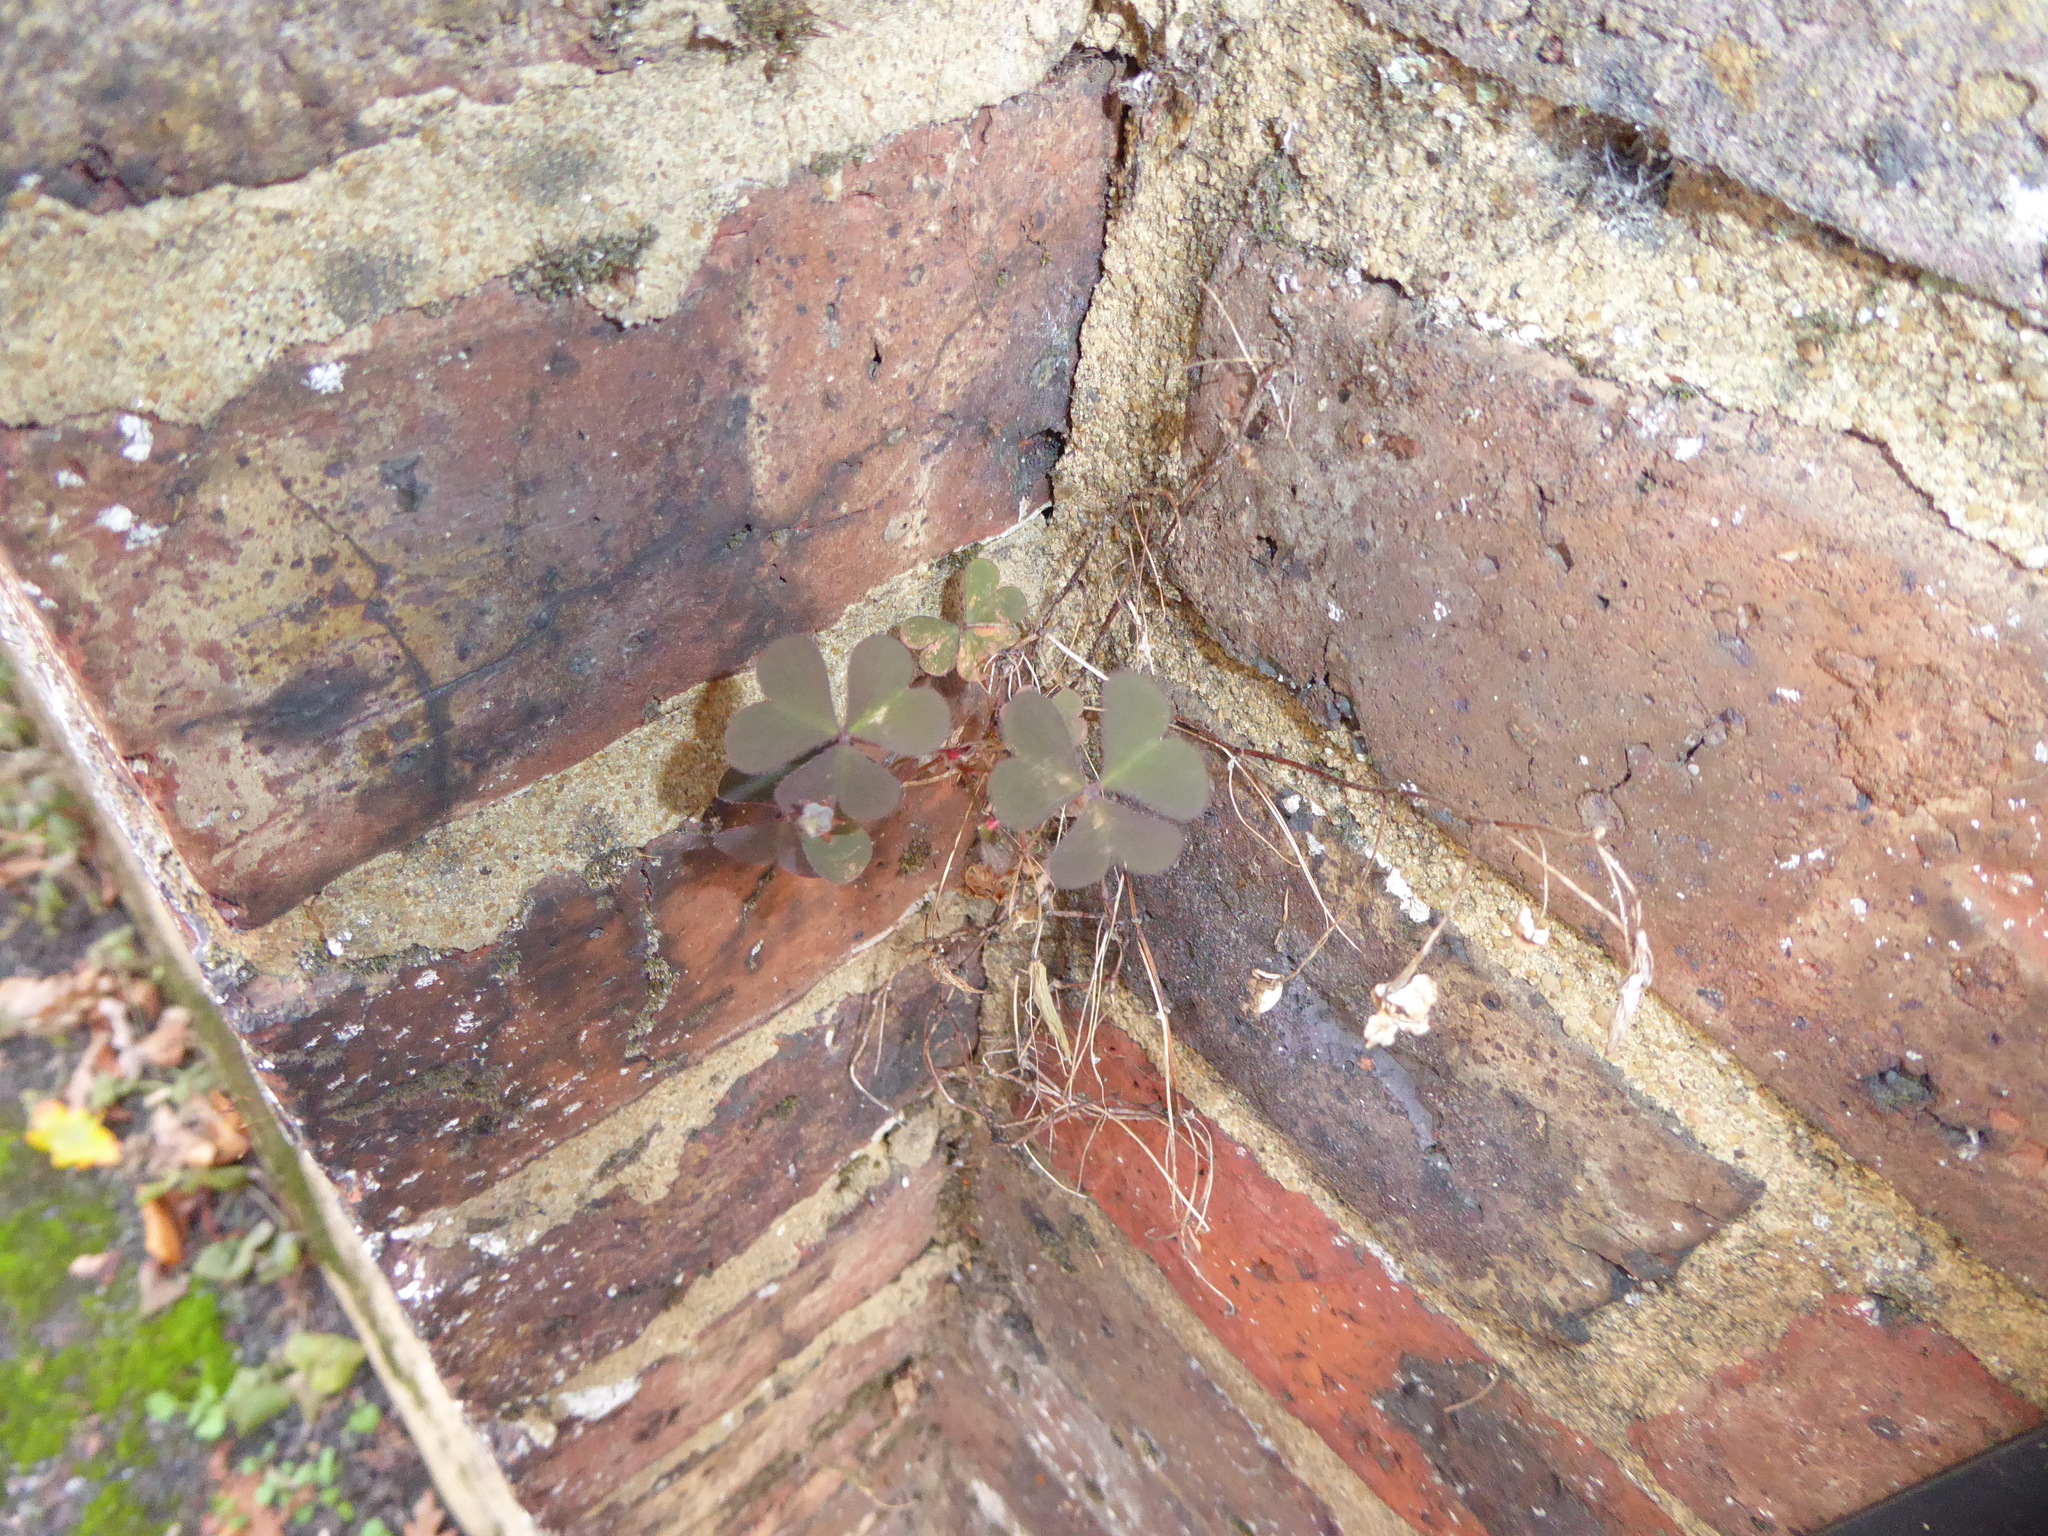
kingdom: Plantae
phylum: Tracheophyta
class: Magnoliopsida
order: Oxalidales
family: Oxalidaceae
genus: Oxalis
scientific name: Oxalis corniculata
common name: Procumbent yellow-sorrel
